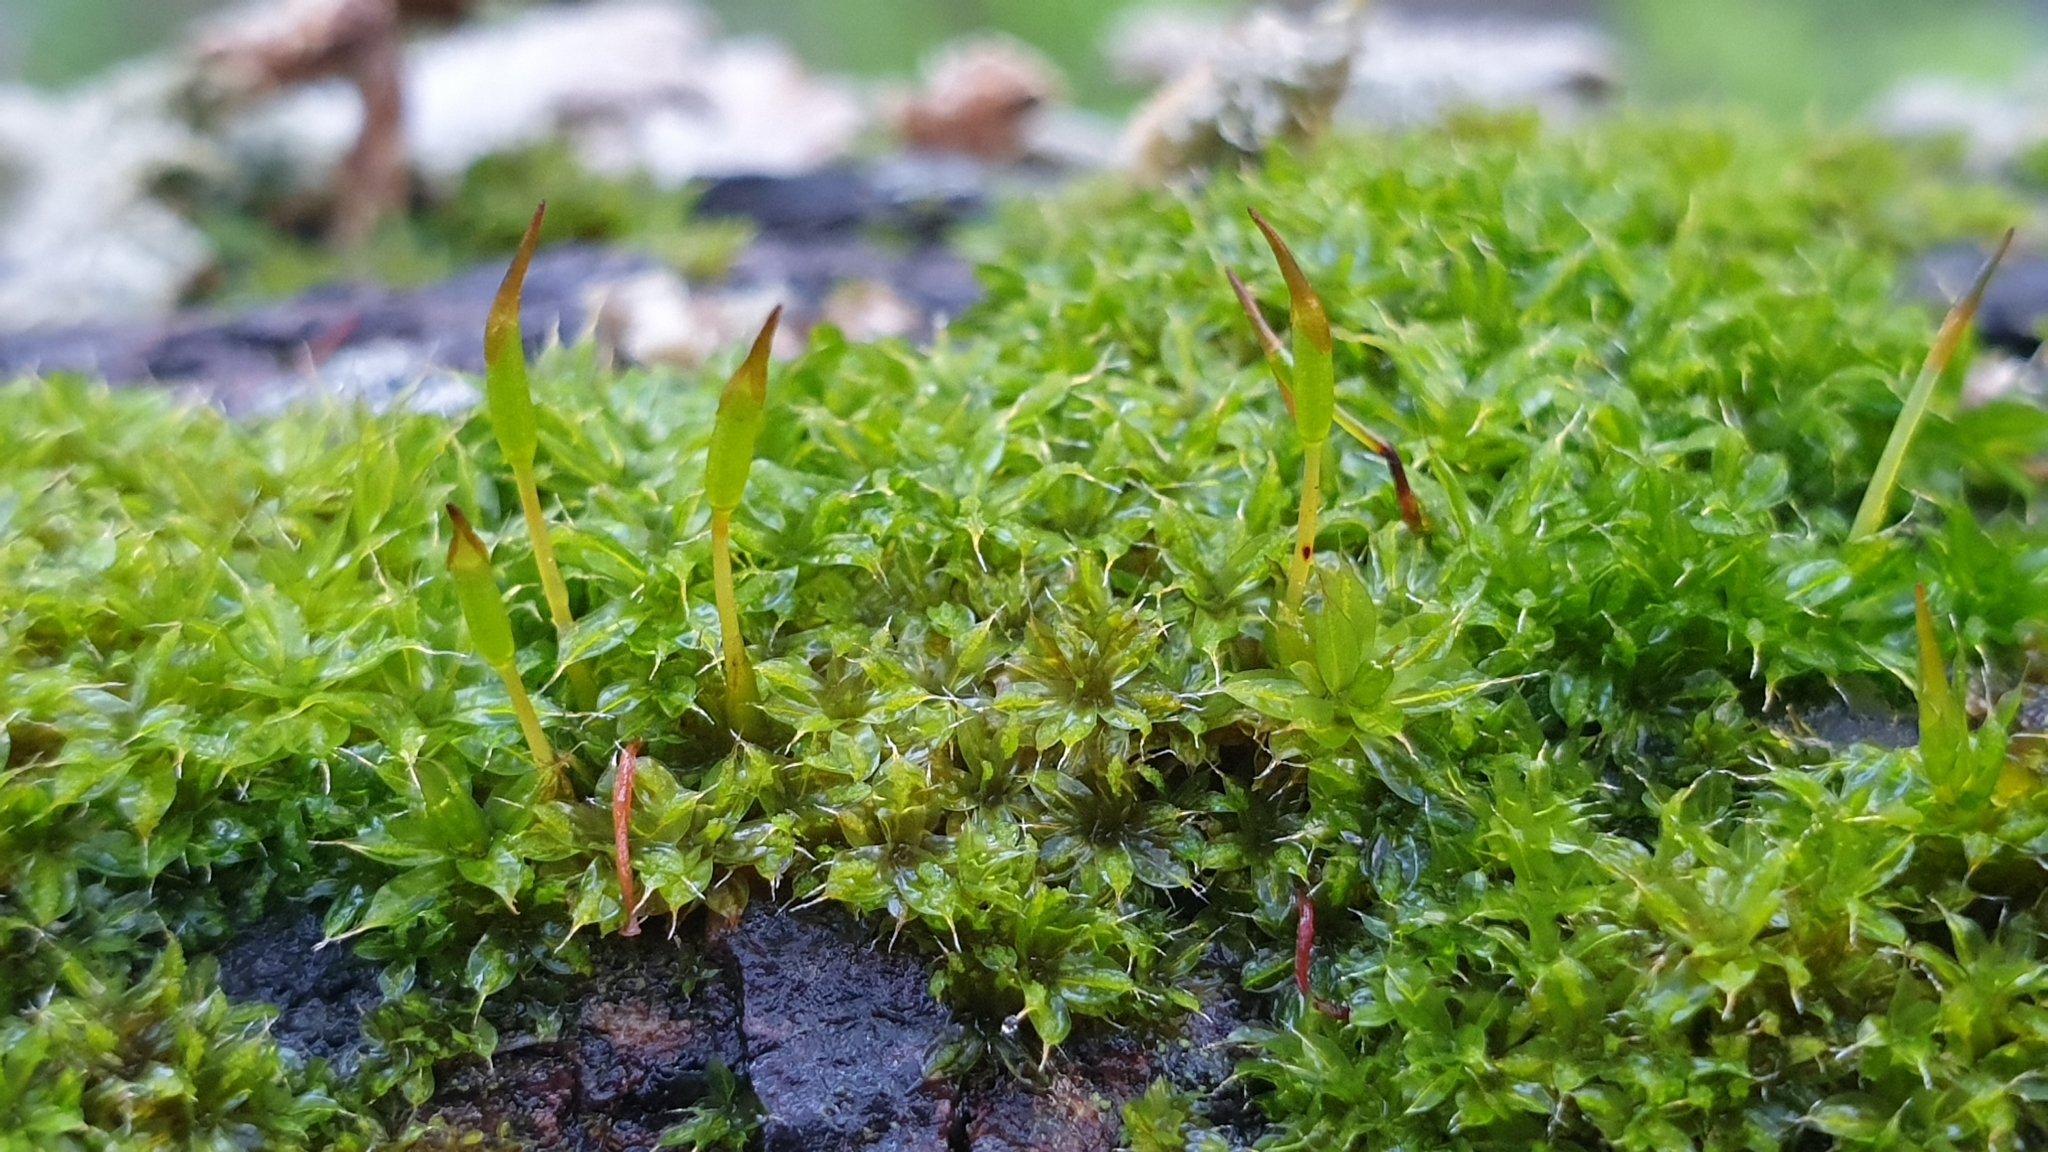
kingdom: Plantae
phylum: Bryophyta
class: Bryopsida
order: Pottiales
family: Pottiaceae
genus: Syntrichia
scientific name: Syntrichia papillosa
